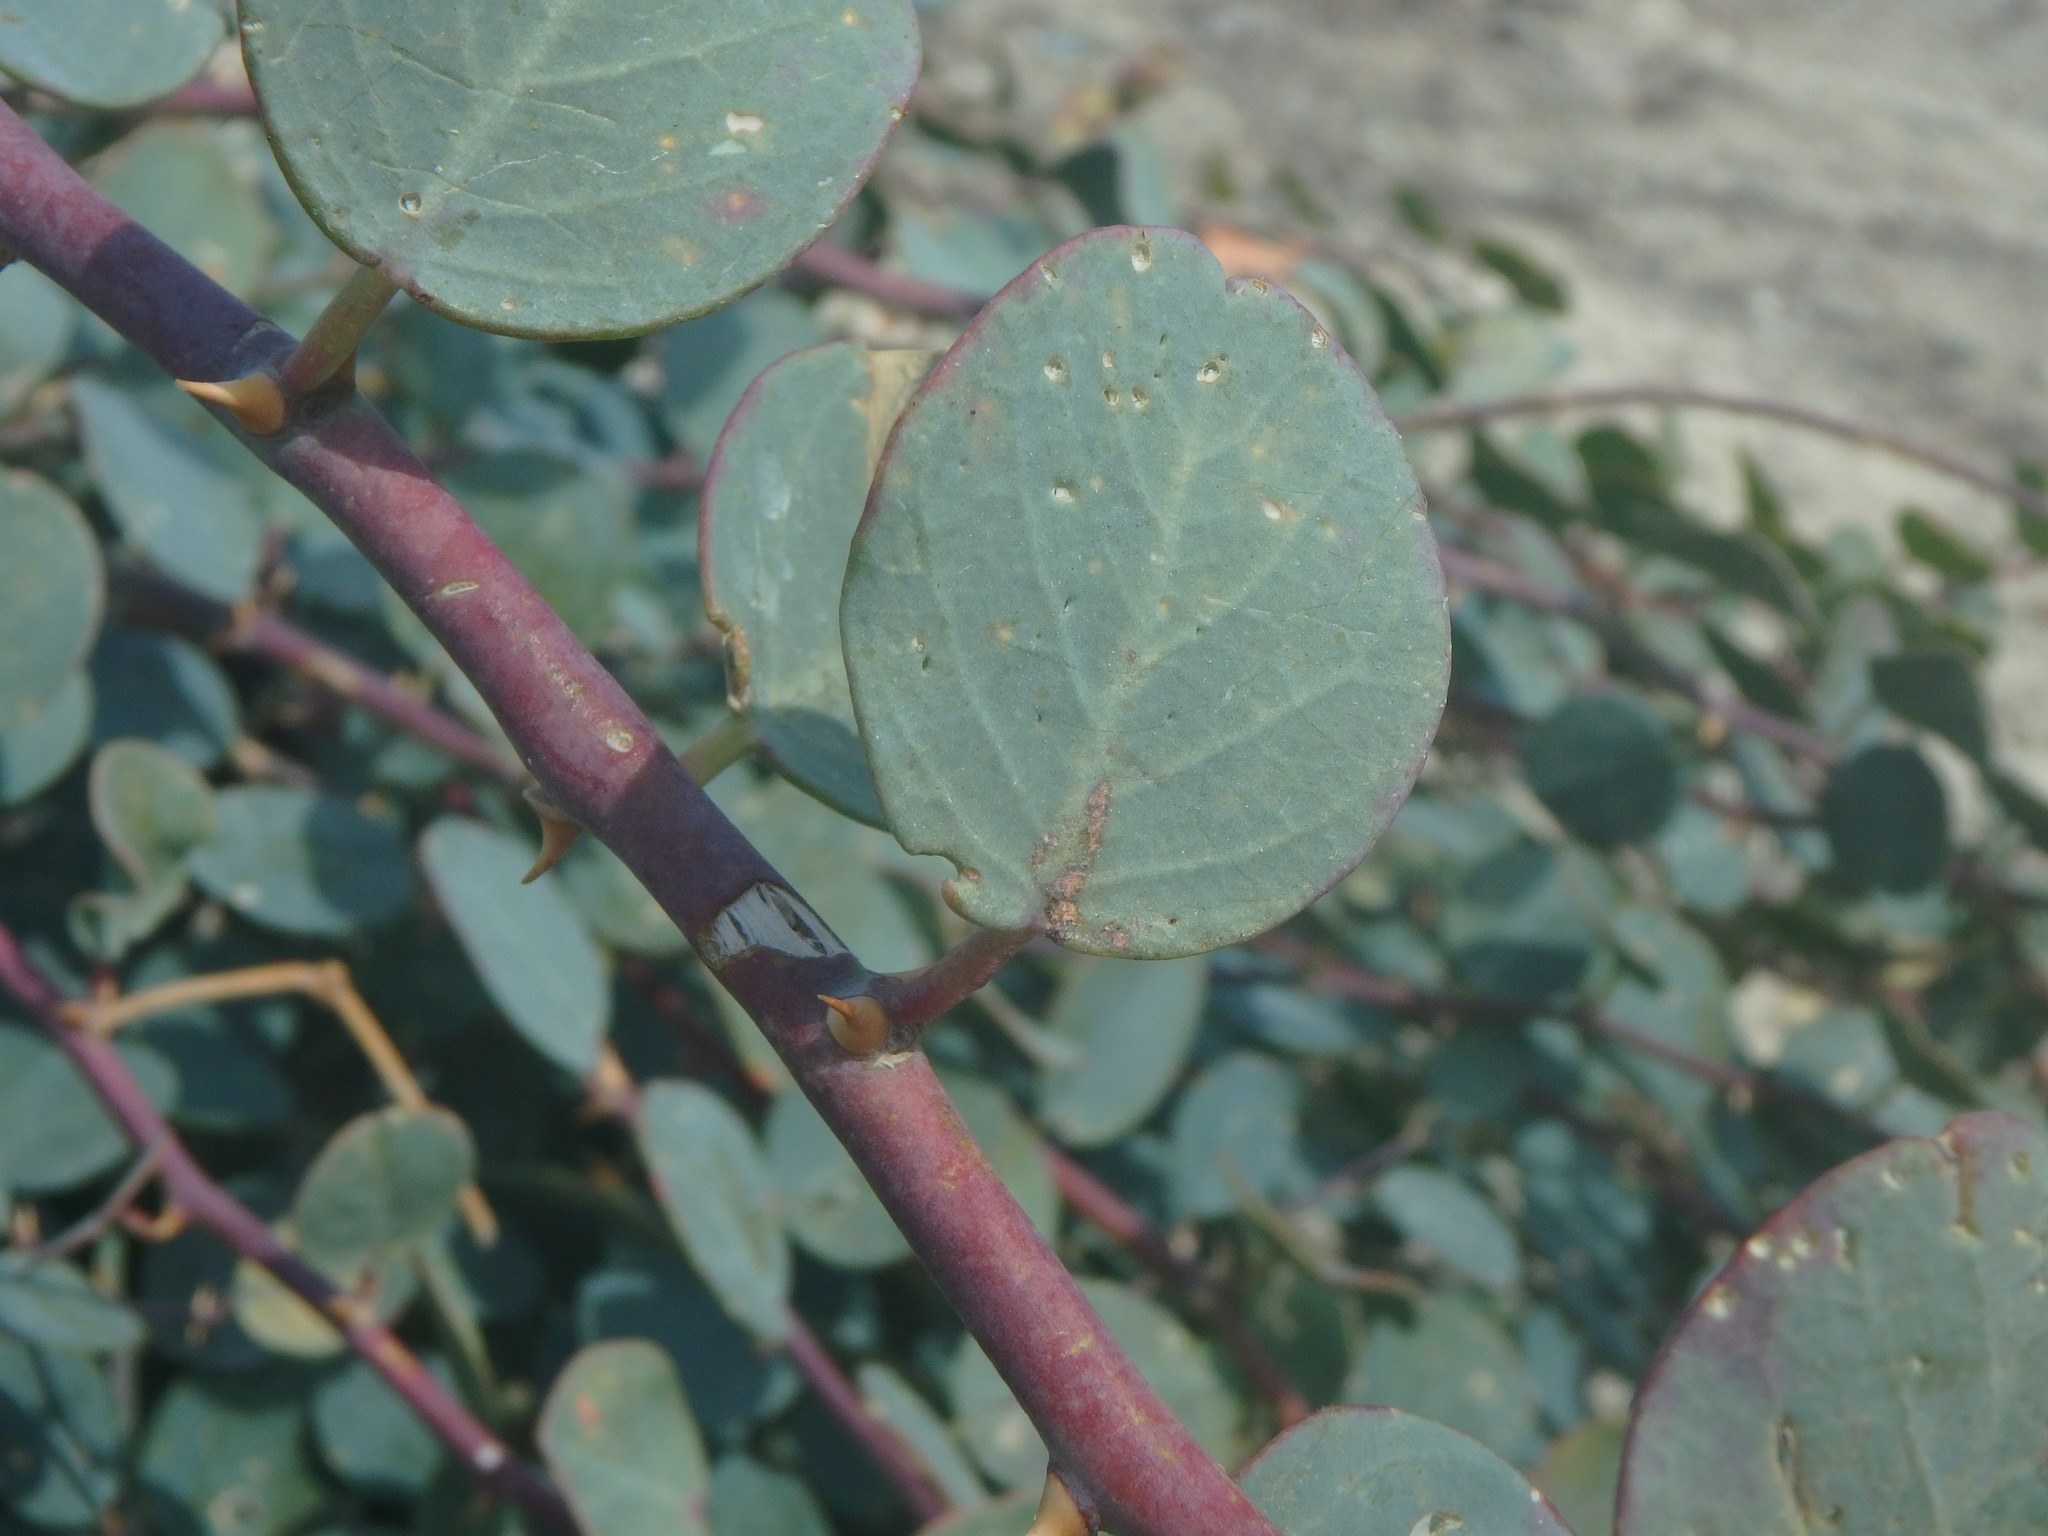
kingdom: Plantae
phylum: Tracheophyta
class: Magnoliopsida
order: Brassicales
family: Capparaceae
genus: Capparis
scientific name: Capparis spinosa
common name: Caper
